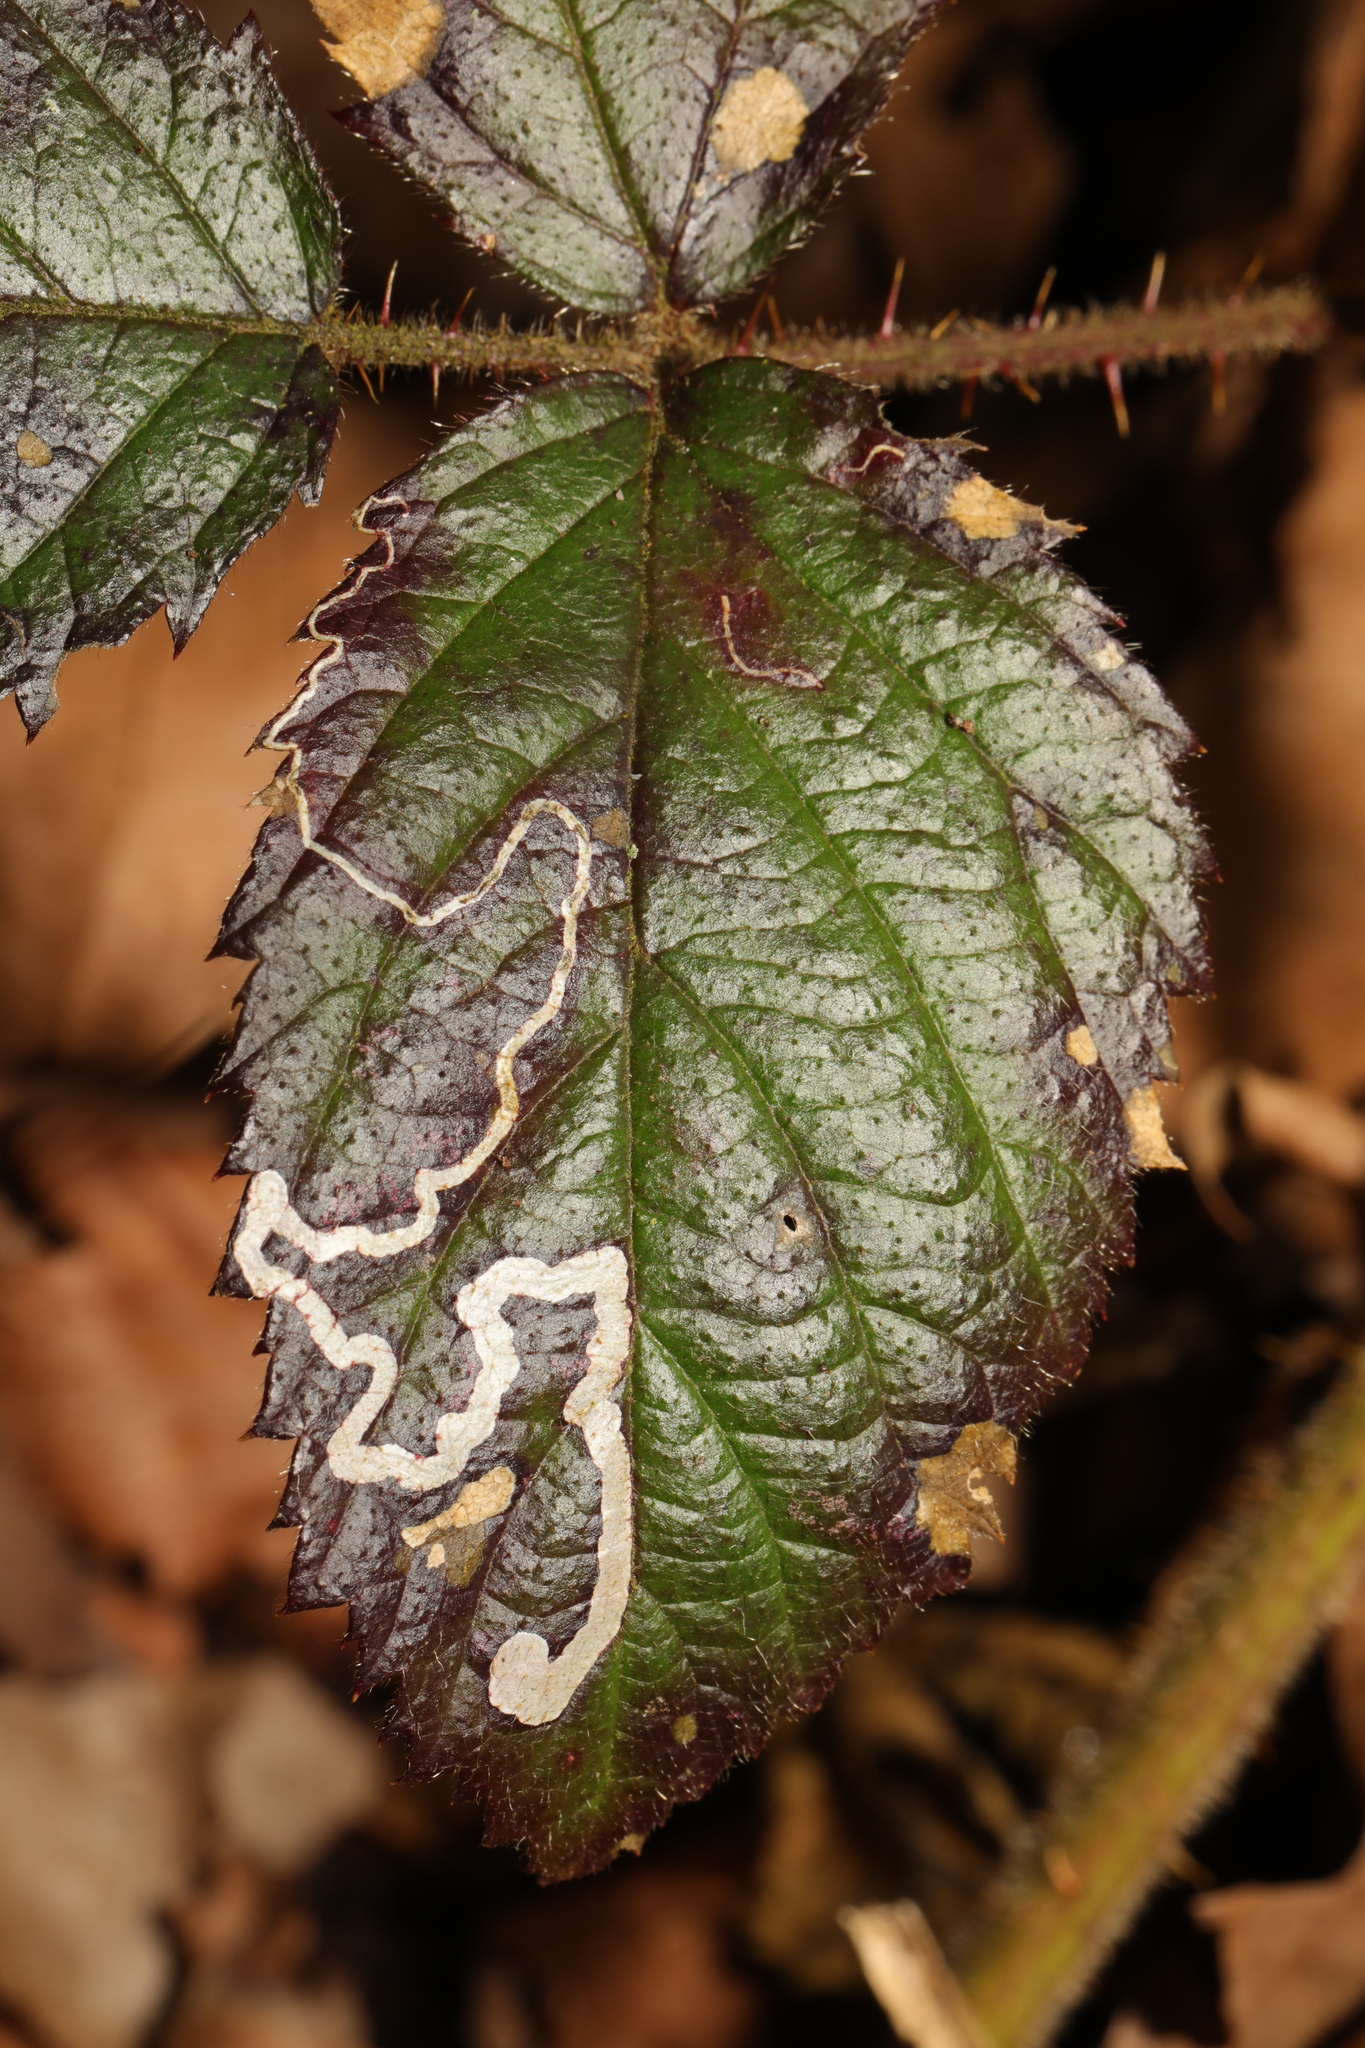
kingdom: Animalia
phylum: Arthropoda
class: Insecta
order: Lepidoptera
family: Nepticulidae
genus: Stigmella
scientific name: Stigmella aurella
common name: Golden pigmy
